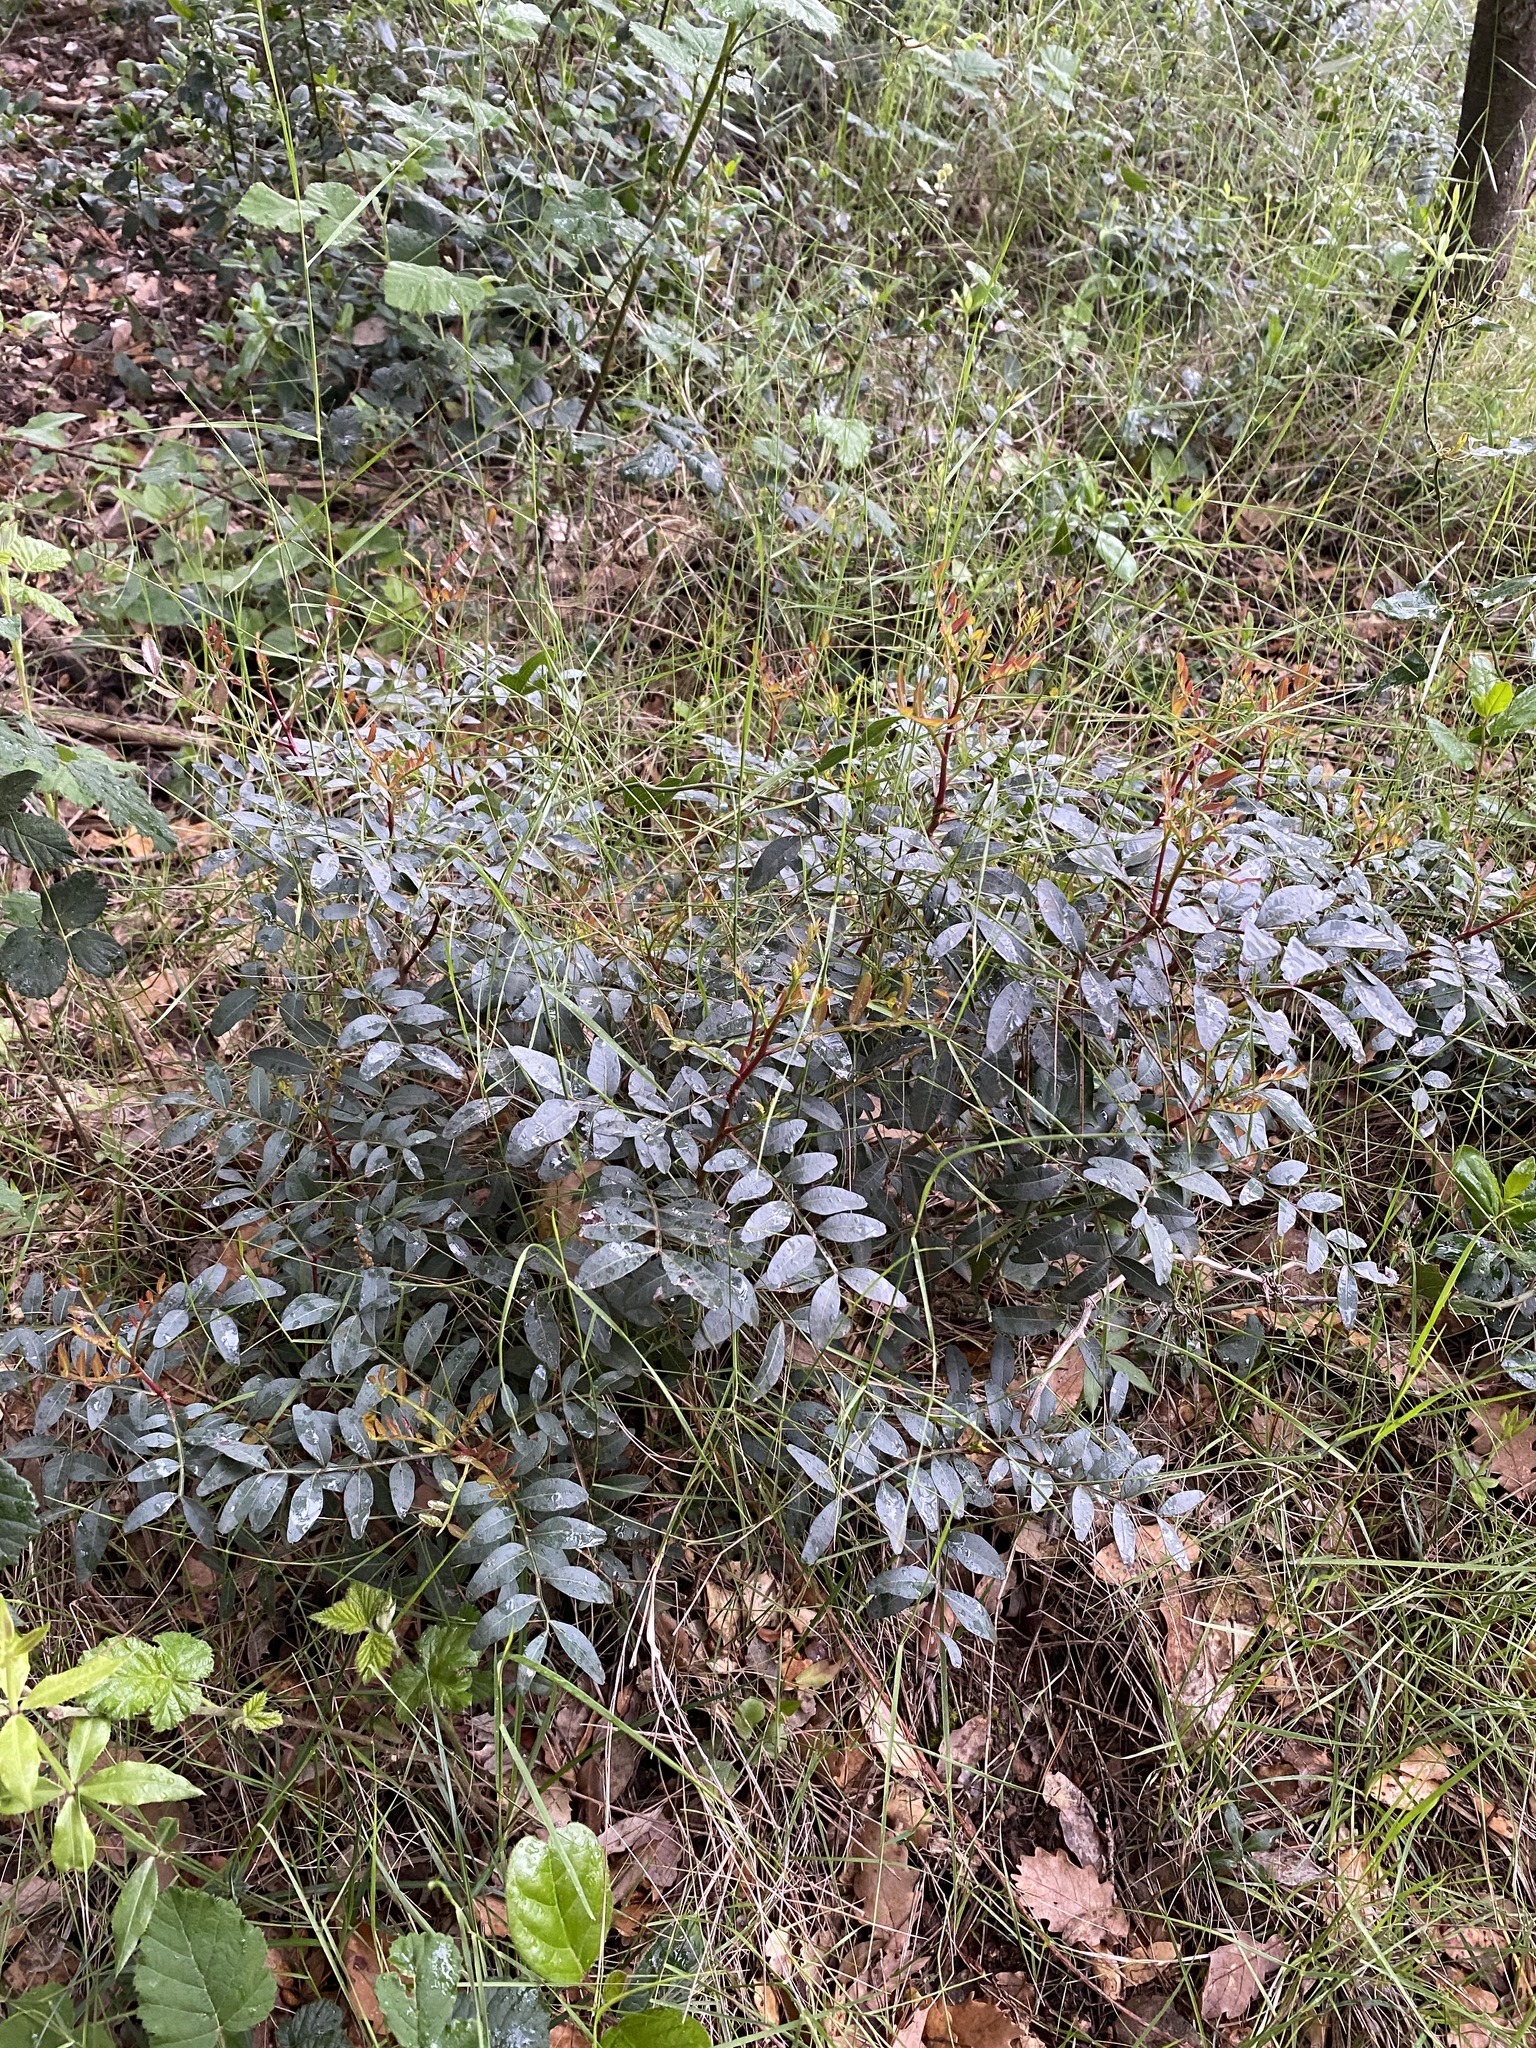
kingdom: Plantae
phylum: Tracheophyta
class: Magnoliopsida
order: Sapindales
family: Anacardiaceae
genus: Pistacia
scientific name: Pistacia lentiscus
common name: Lentisk
